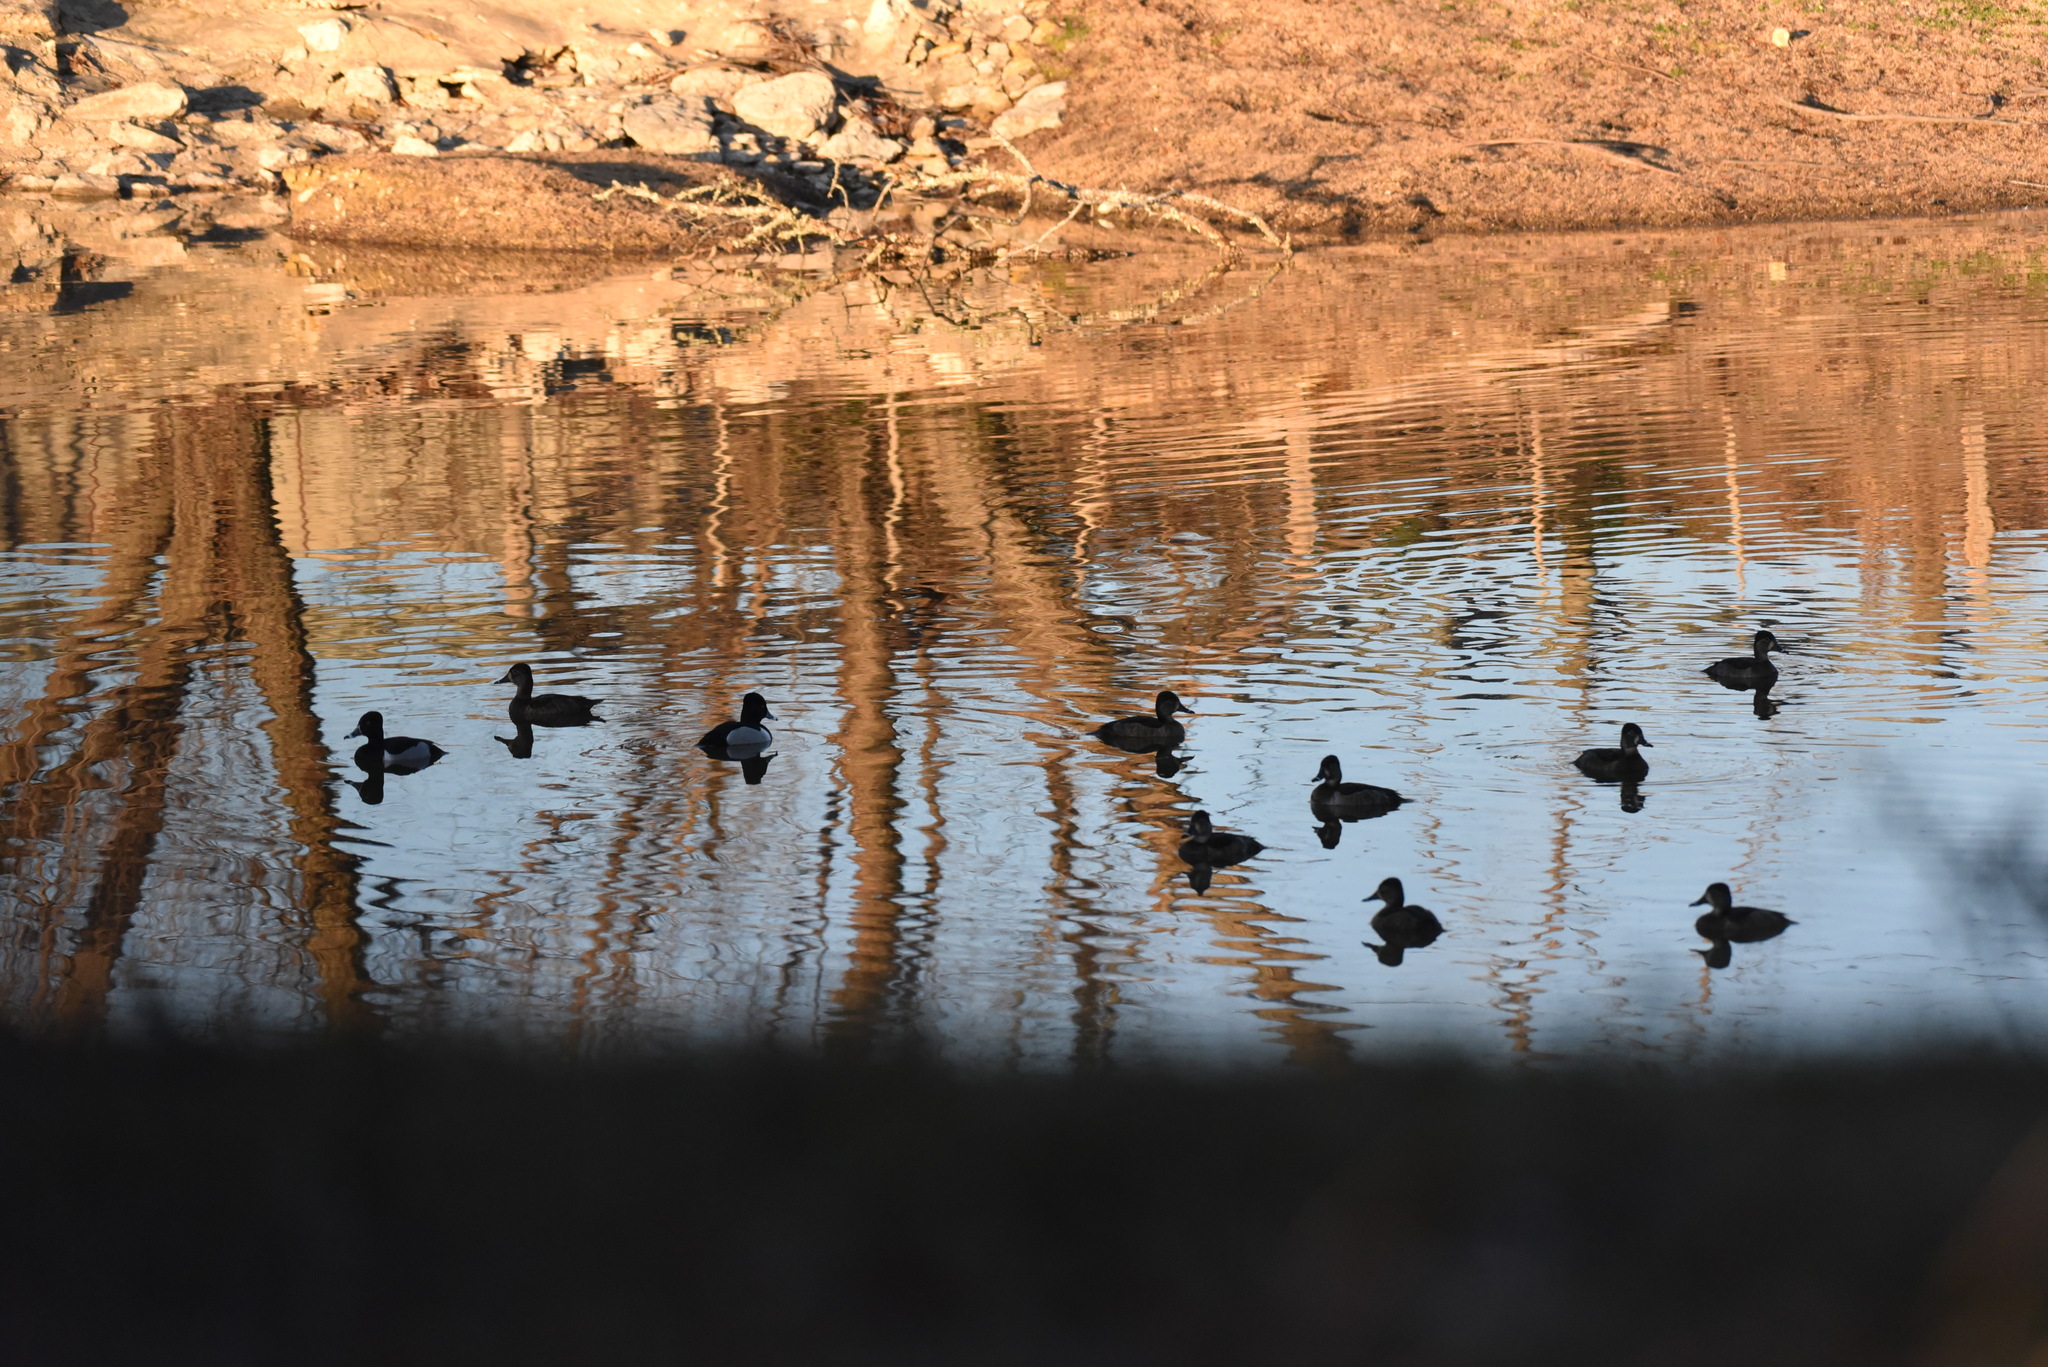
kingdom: Animalia
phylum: Chordata
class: Aves
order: Anseriformes
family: Anatidae
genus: Aythya
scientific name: Aythya collaris
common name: Ring-necked duck
